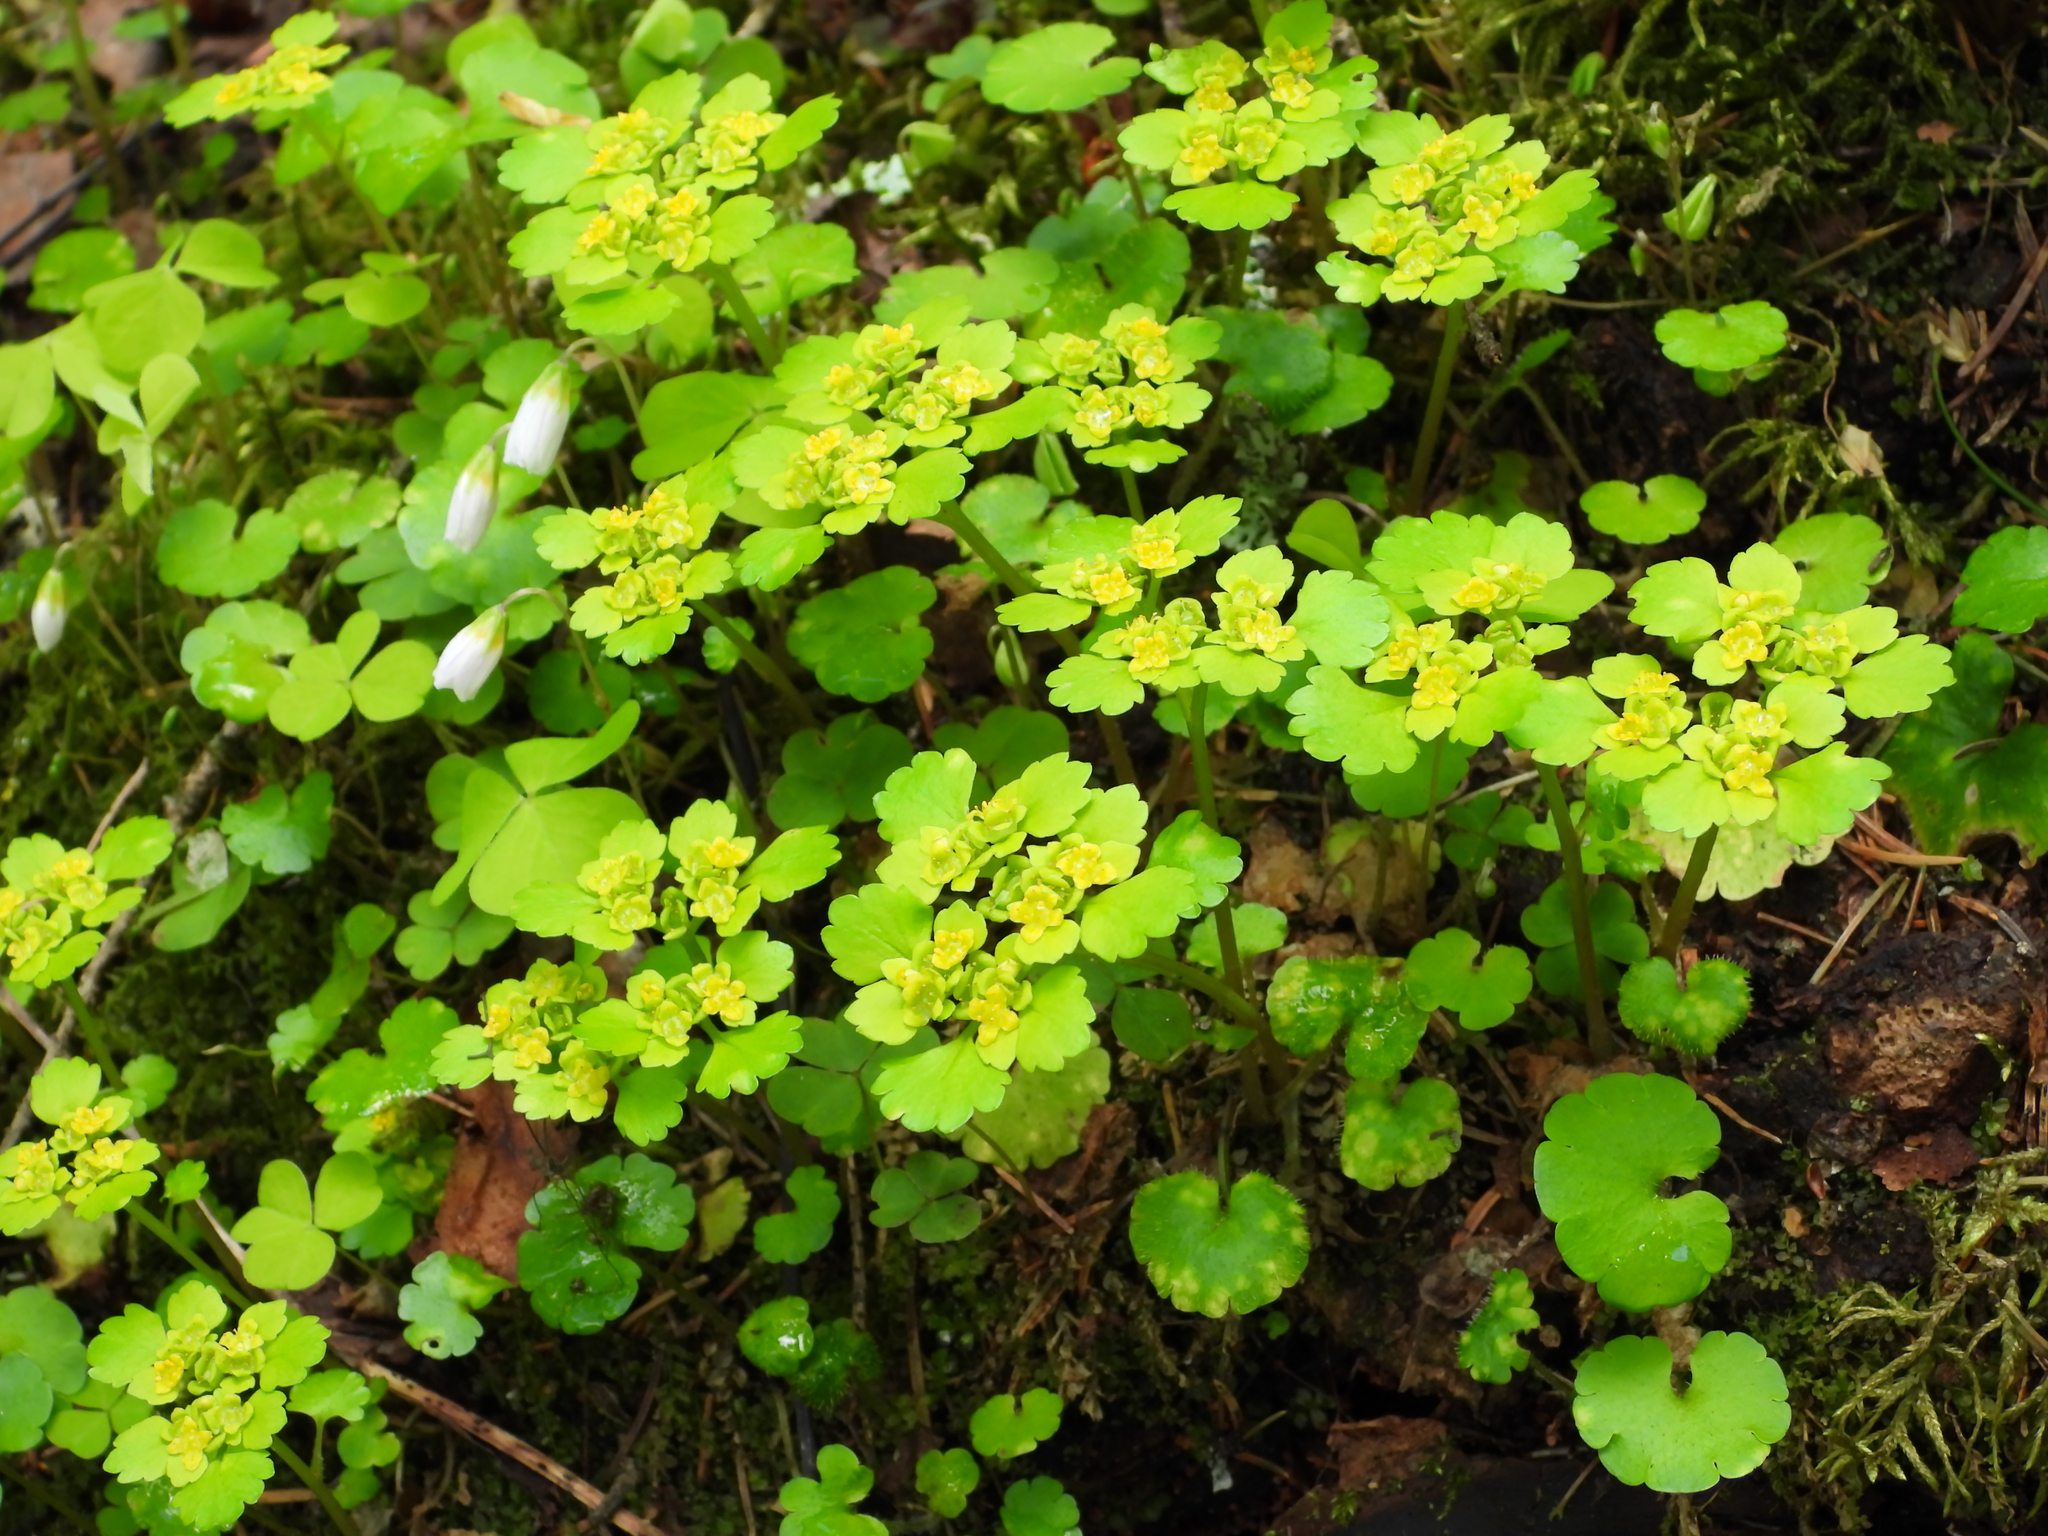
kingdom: Plantae
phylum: Tracheophyta
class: Magnoliopsida
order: Saxifragales
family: Saxifragaceae
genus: Chrysosplenium
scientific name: Chrysosplenium alternifolium
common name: Alternate-leaved golden-saxifrage
